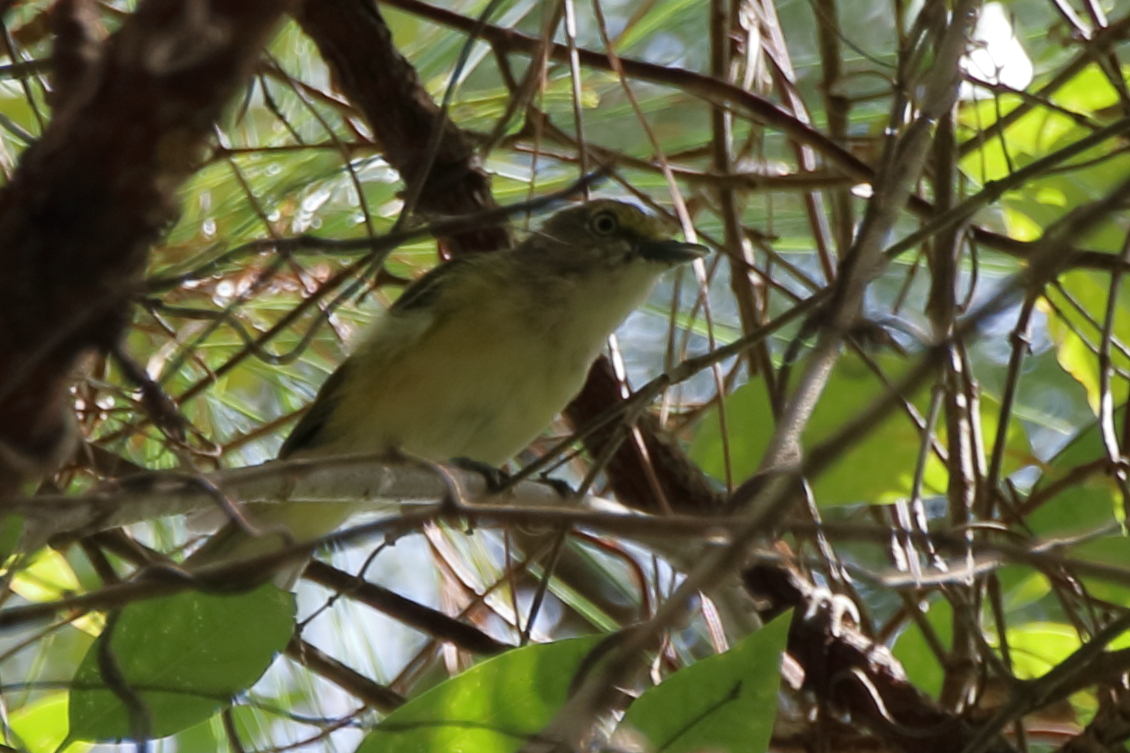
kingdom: Animalia
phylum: Chordata
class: Aves
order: Passeriformes
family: Vireonidae
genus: Vireo
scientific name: Vireo griseus
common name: White-eyed vireo
